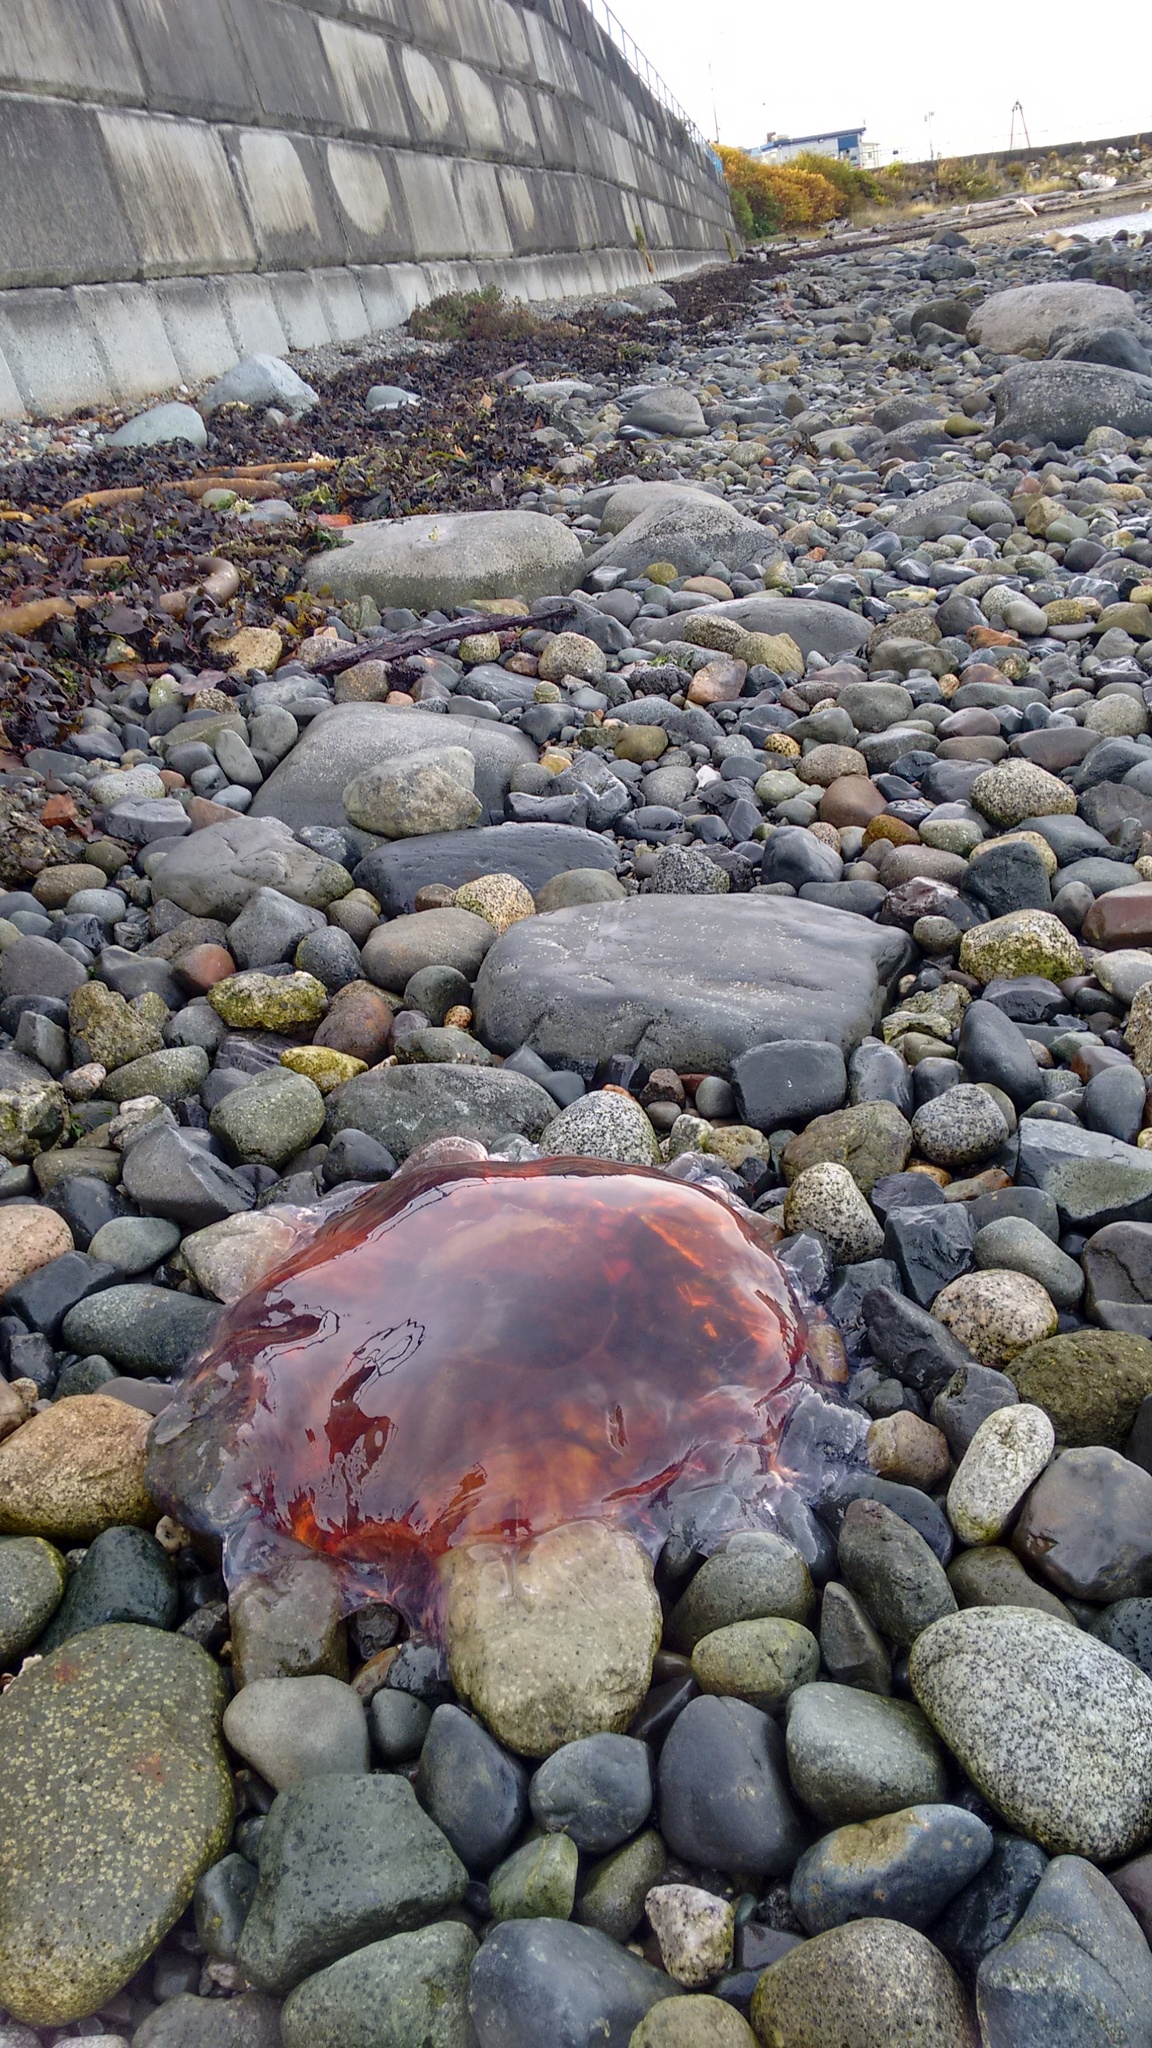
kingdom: Animalia
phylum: Cnidaria
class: Scyphozoa
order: Semaeostomeae
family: Cyaneidae
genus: Cyanea
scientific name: Cyanea ferruginea
